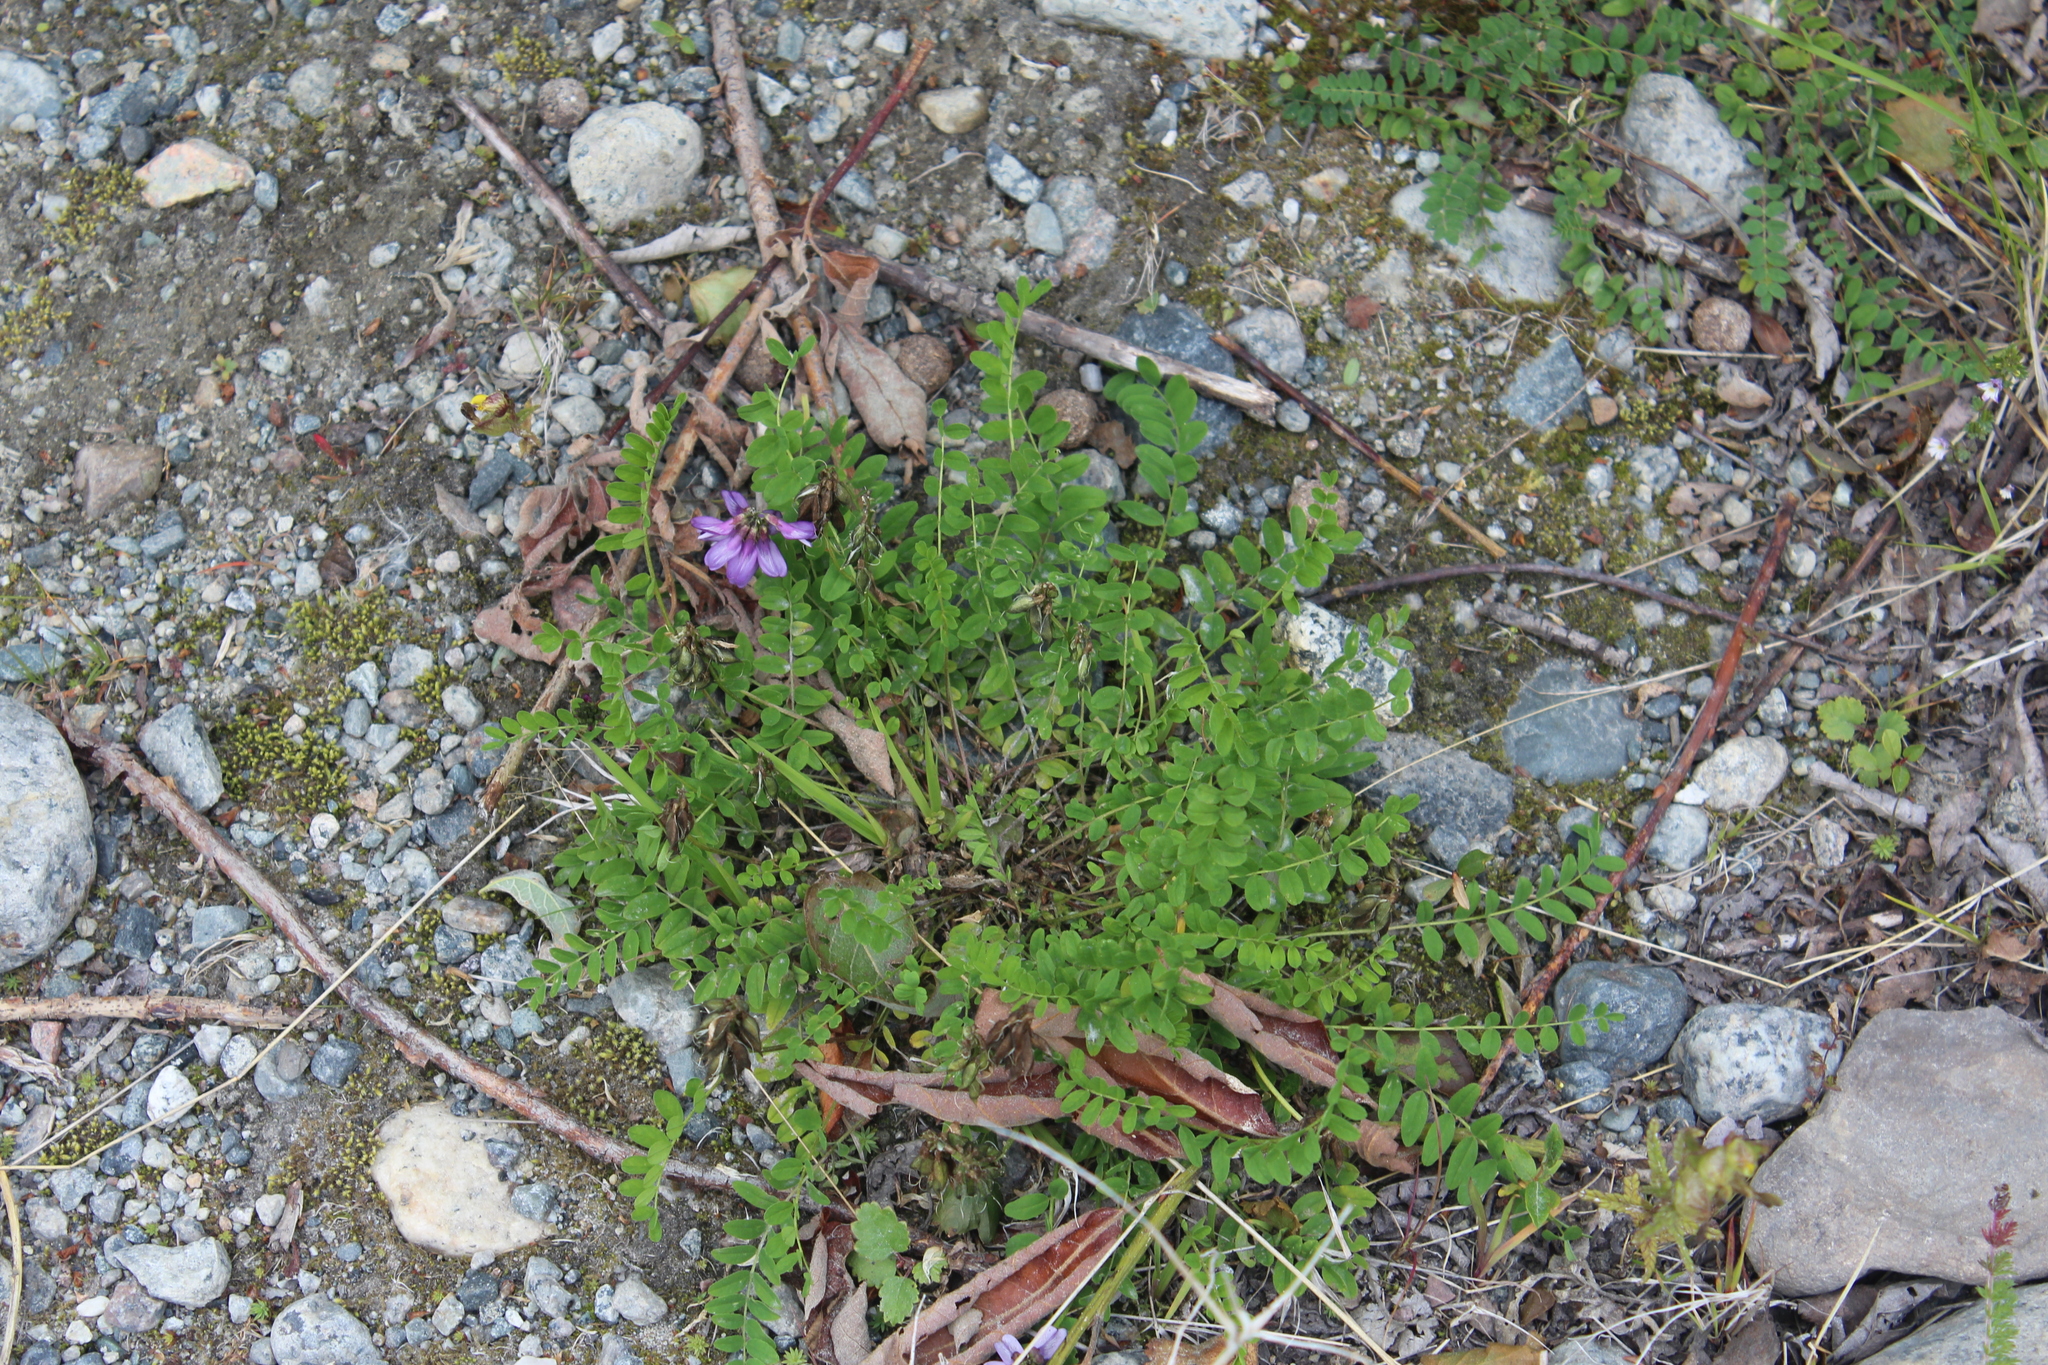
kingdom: Plantae
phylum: Tracheophyta
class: Magnoliopsida
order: Fabales
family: Fabaceae
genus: Astragalus
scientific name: Astragalus alpinus
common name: Alpine milk-vetch
